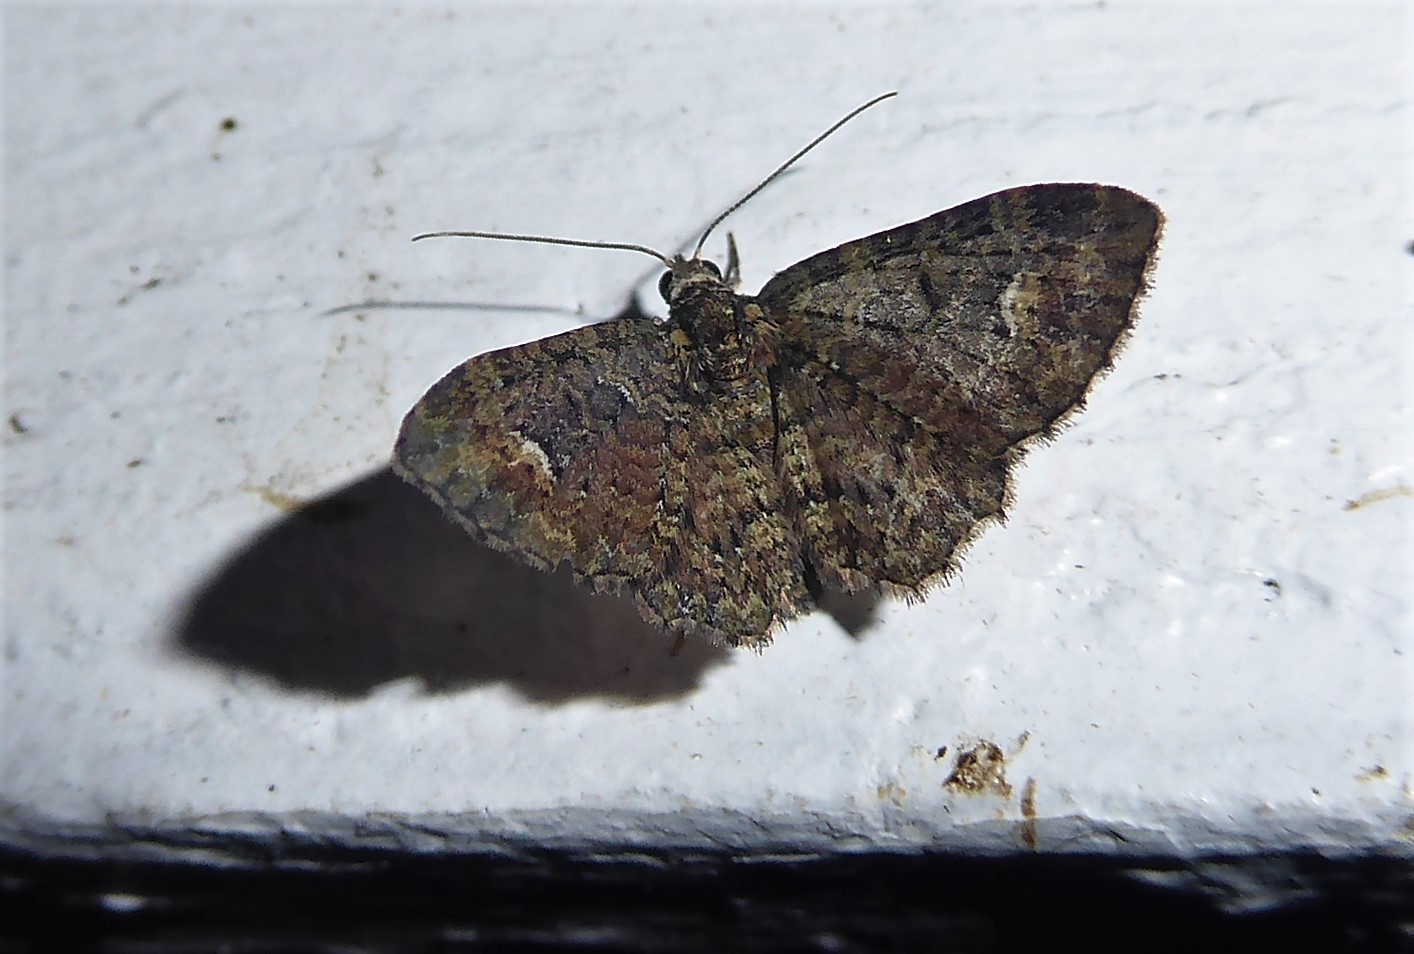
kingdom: Animalia
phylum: Arthropoda
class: Insecta
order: Lepidoptera
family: Geometridae
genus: Pasiphilodes
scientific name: Pasiphilodes testulata
